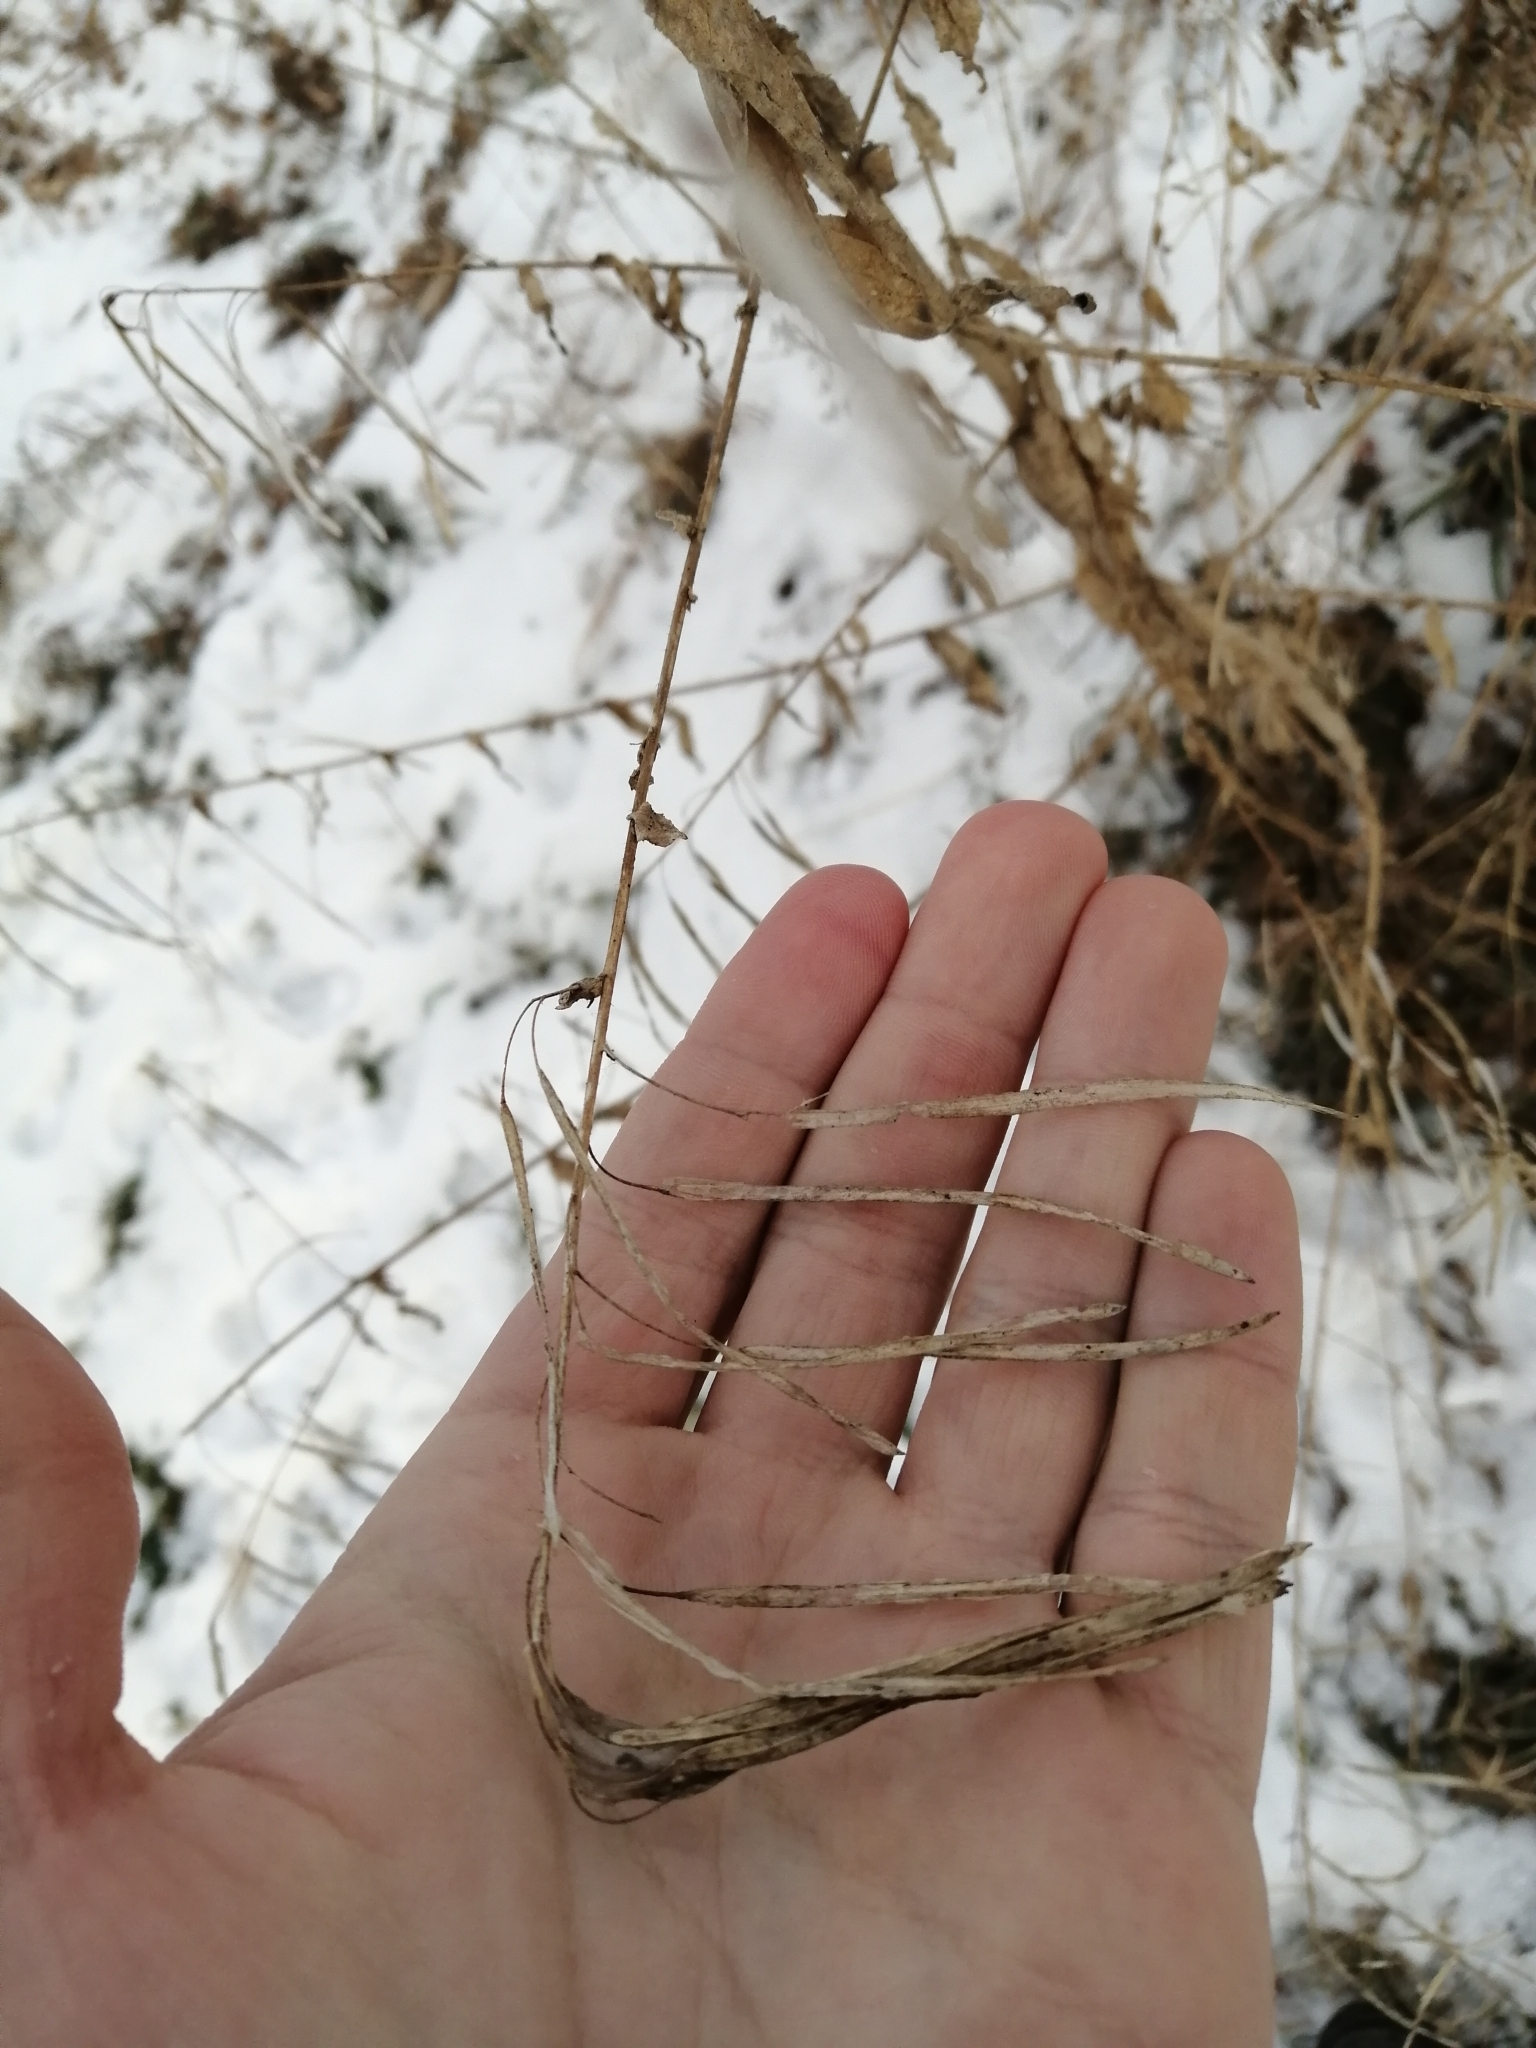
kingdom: Plantae
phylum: Tracheophyta
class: Magnoliopsida
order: Brassicales
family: Brassicaceae
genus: Catolobus
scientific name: Catolobus pendulus
